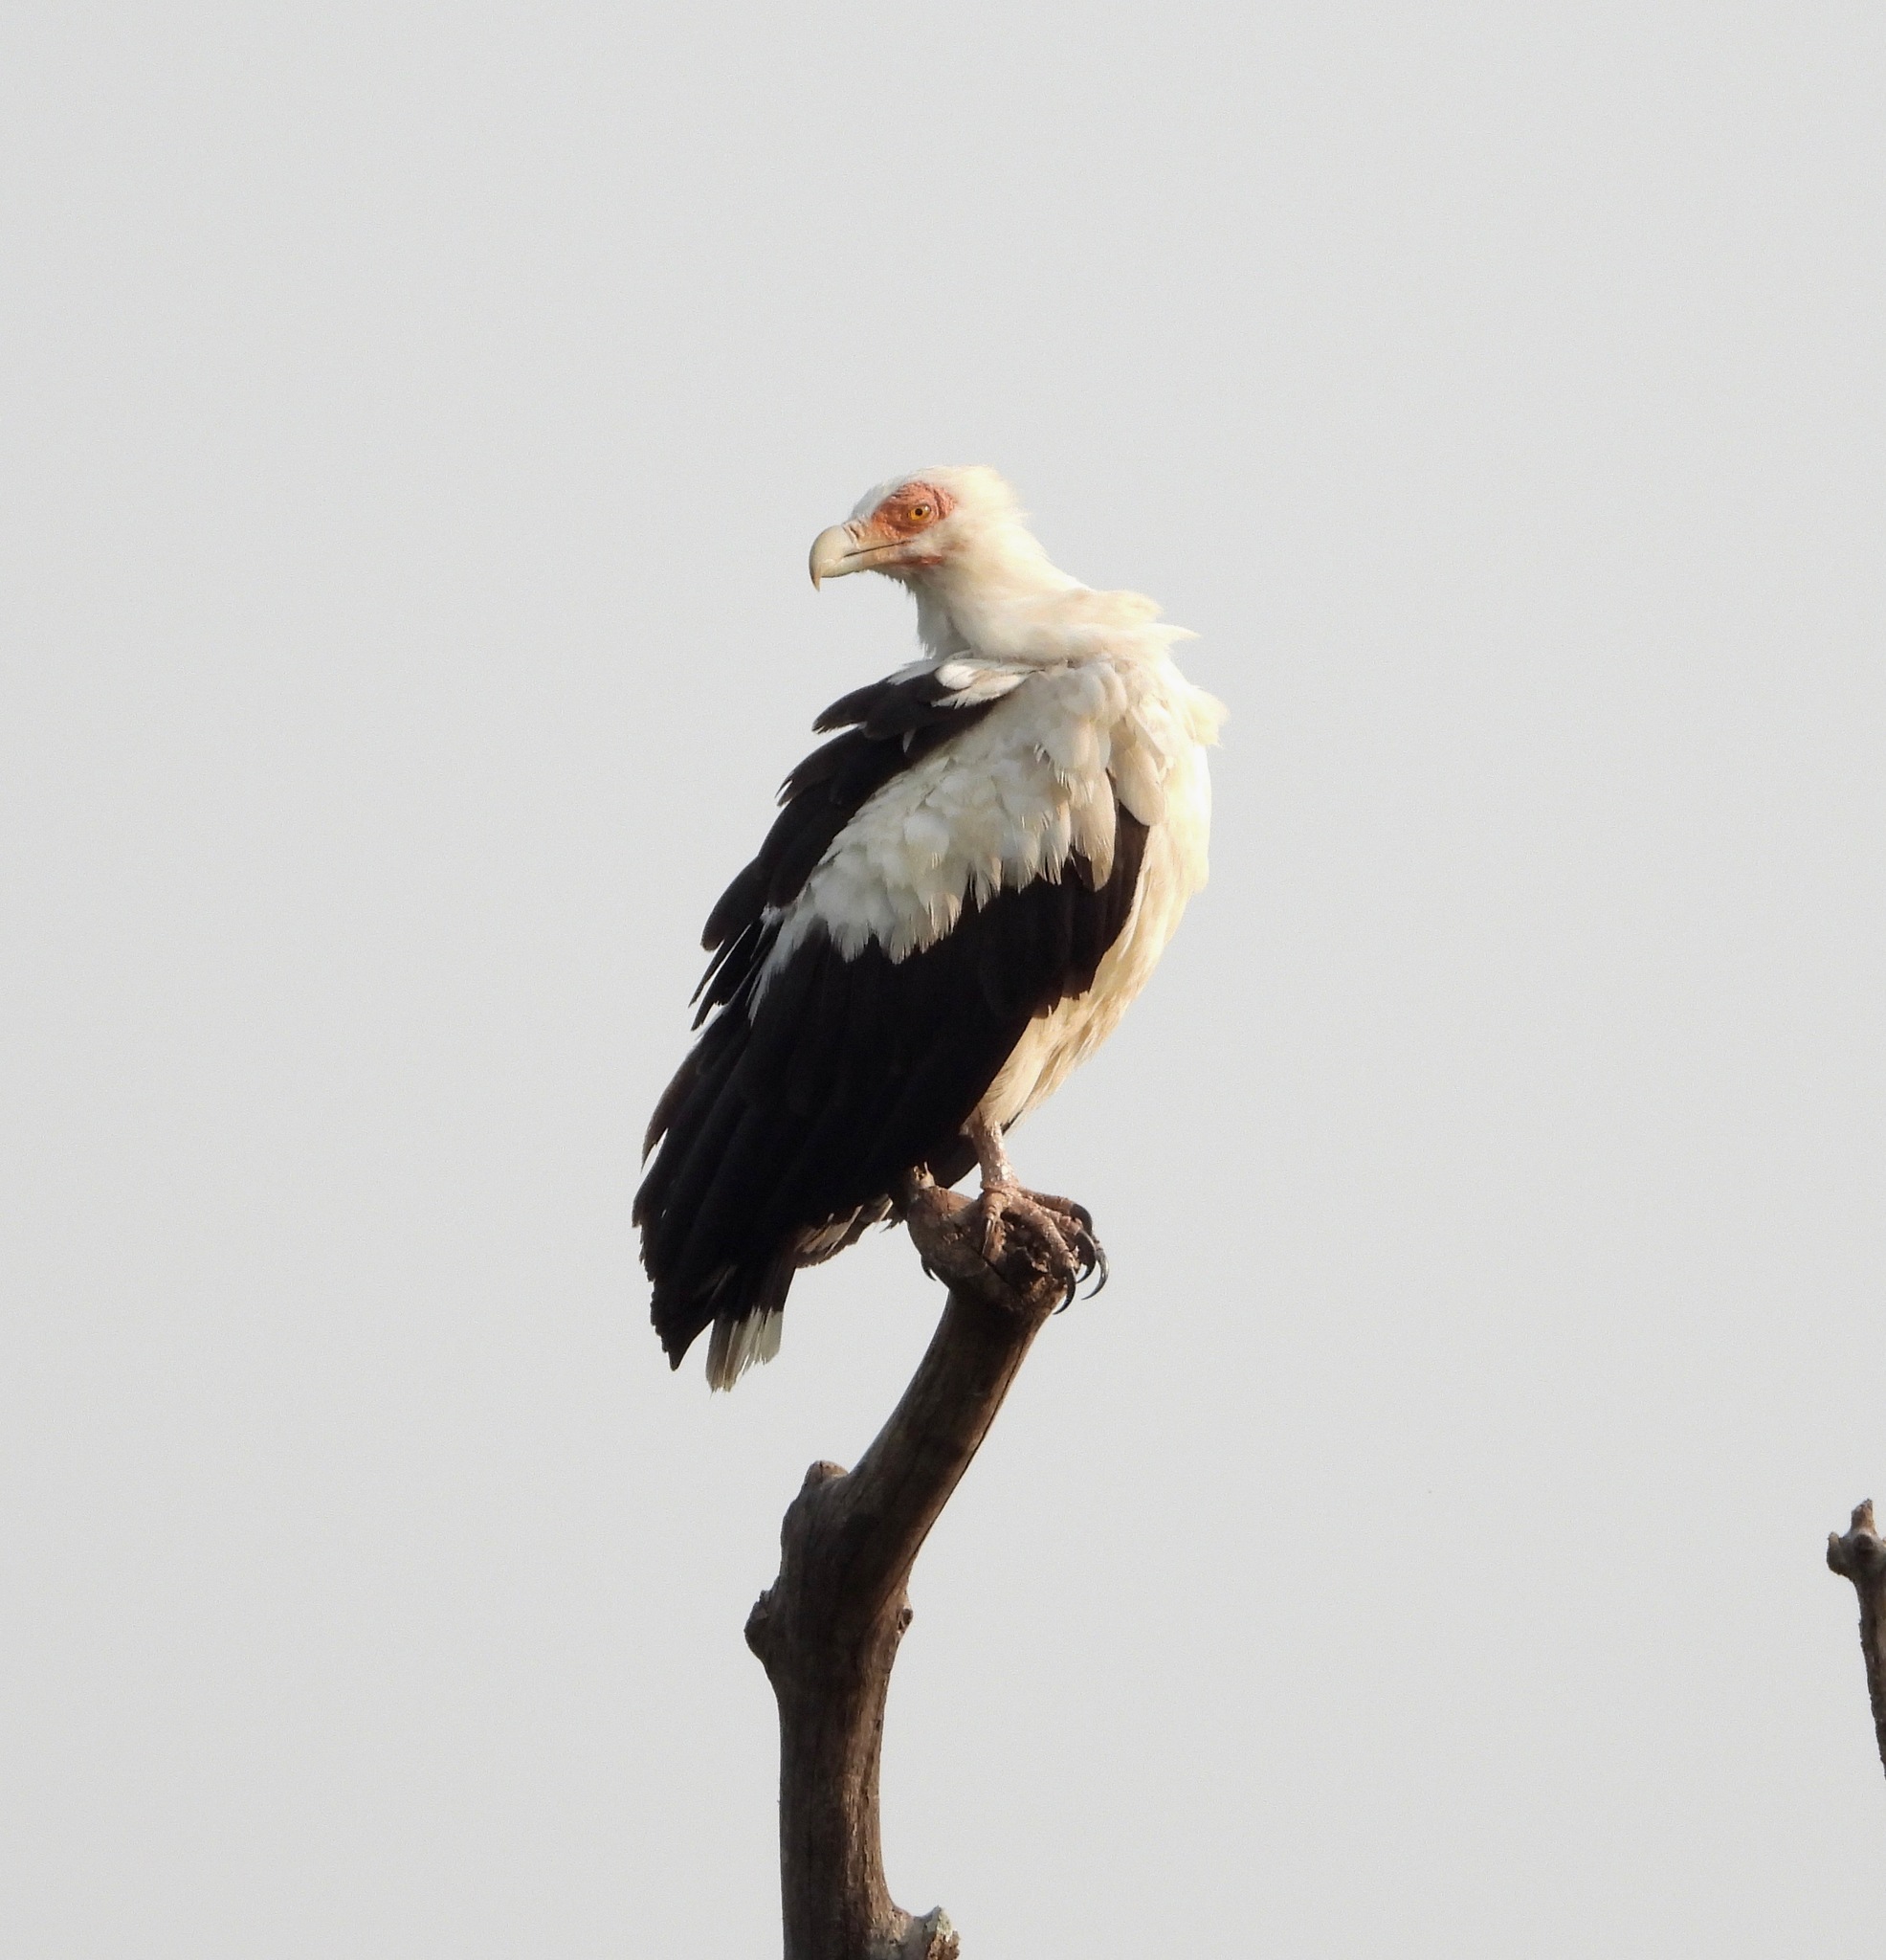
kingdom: Animalia
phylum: Chordata
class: Aves
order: Accipitriformes
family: Accipitridae
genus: Gypohierax
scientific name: Gypohierax angolensis
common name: Palm-nut vulture
